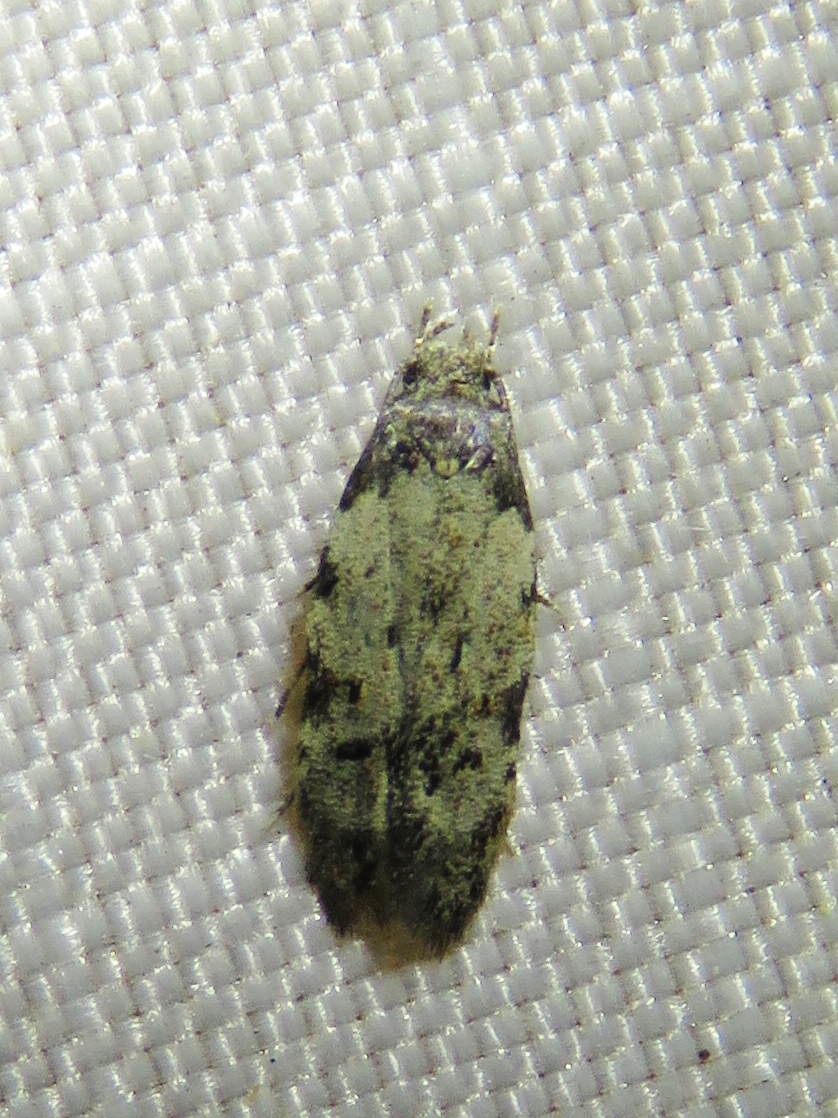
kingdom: Animalia
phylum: Arthropoda
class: Insecta
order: Lepidoptera
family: Autostichidae
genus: Taygete
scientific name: Taygete attributella
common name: Triangle-marked twirler moth
